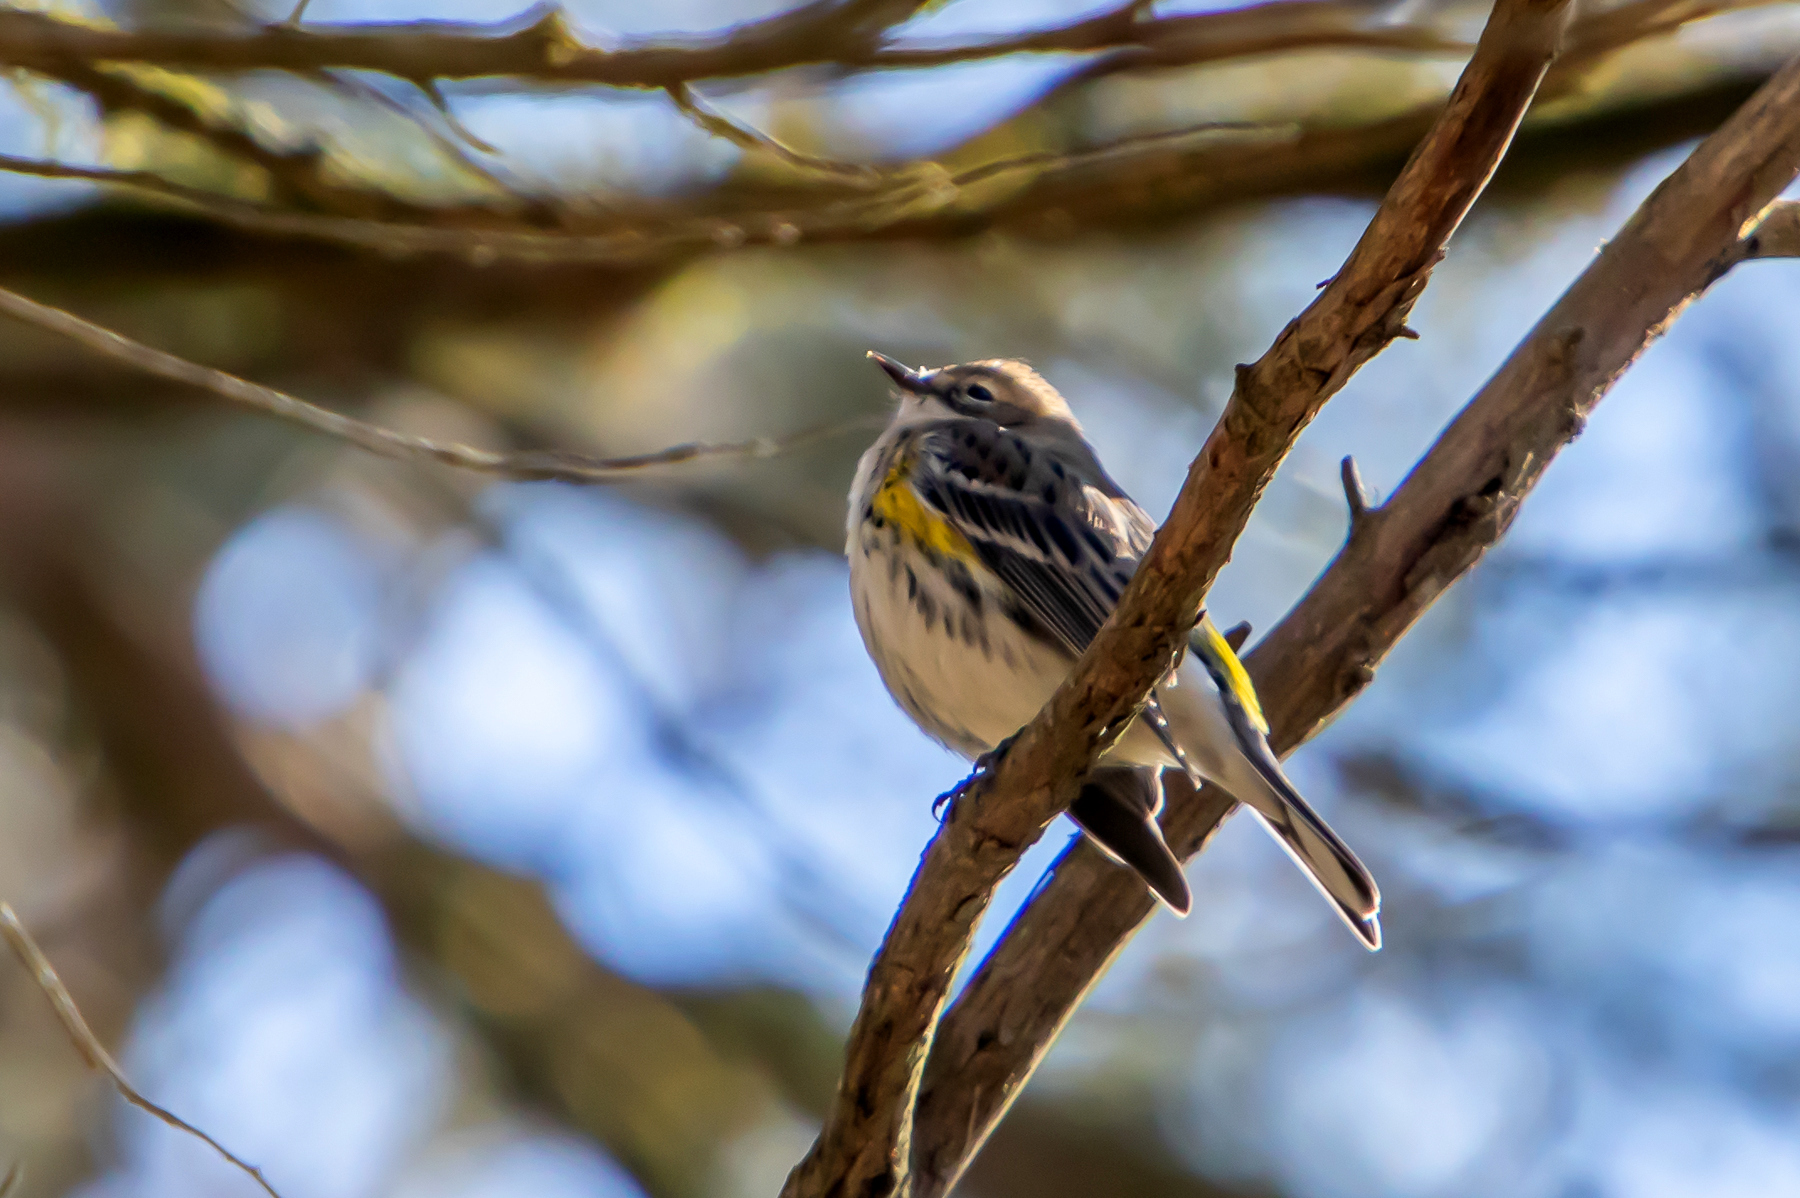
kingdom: Animalia
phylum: Chordata
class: Aves
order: Passeriformes
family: Parulidae
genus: Setophaga
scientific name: Setophaga coronata
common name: Myrtle warbler
